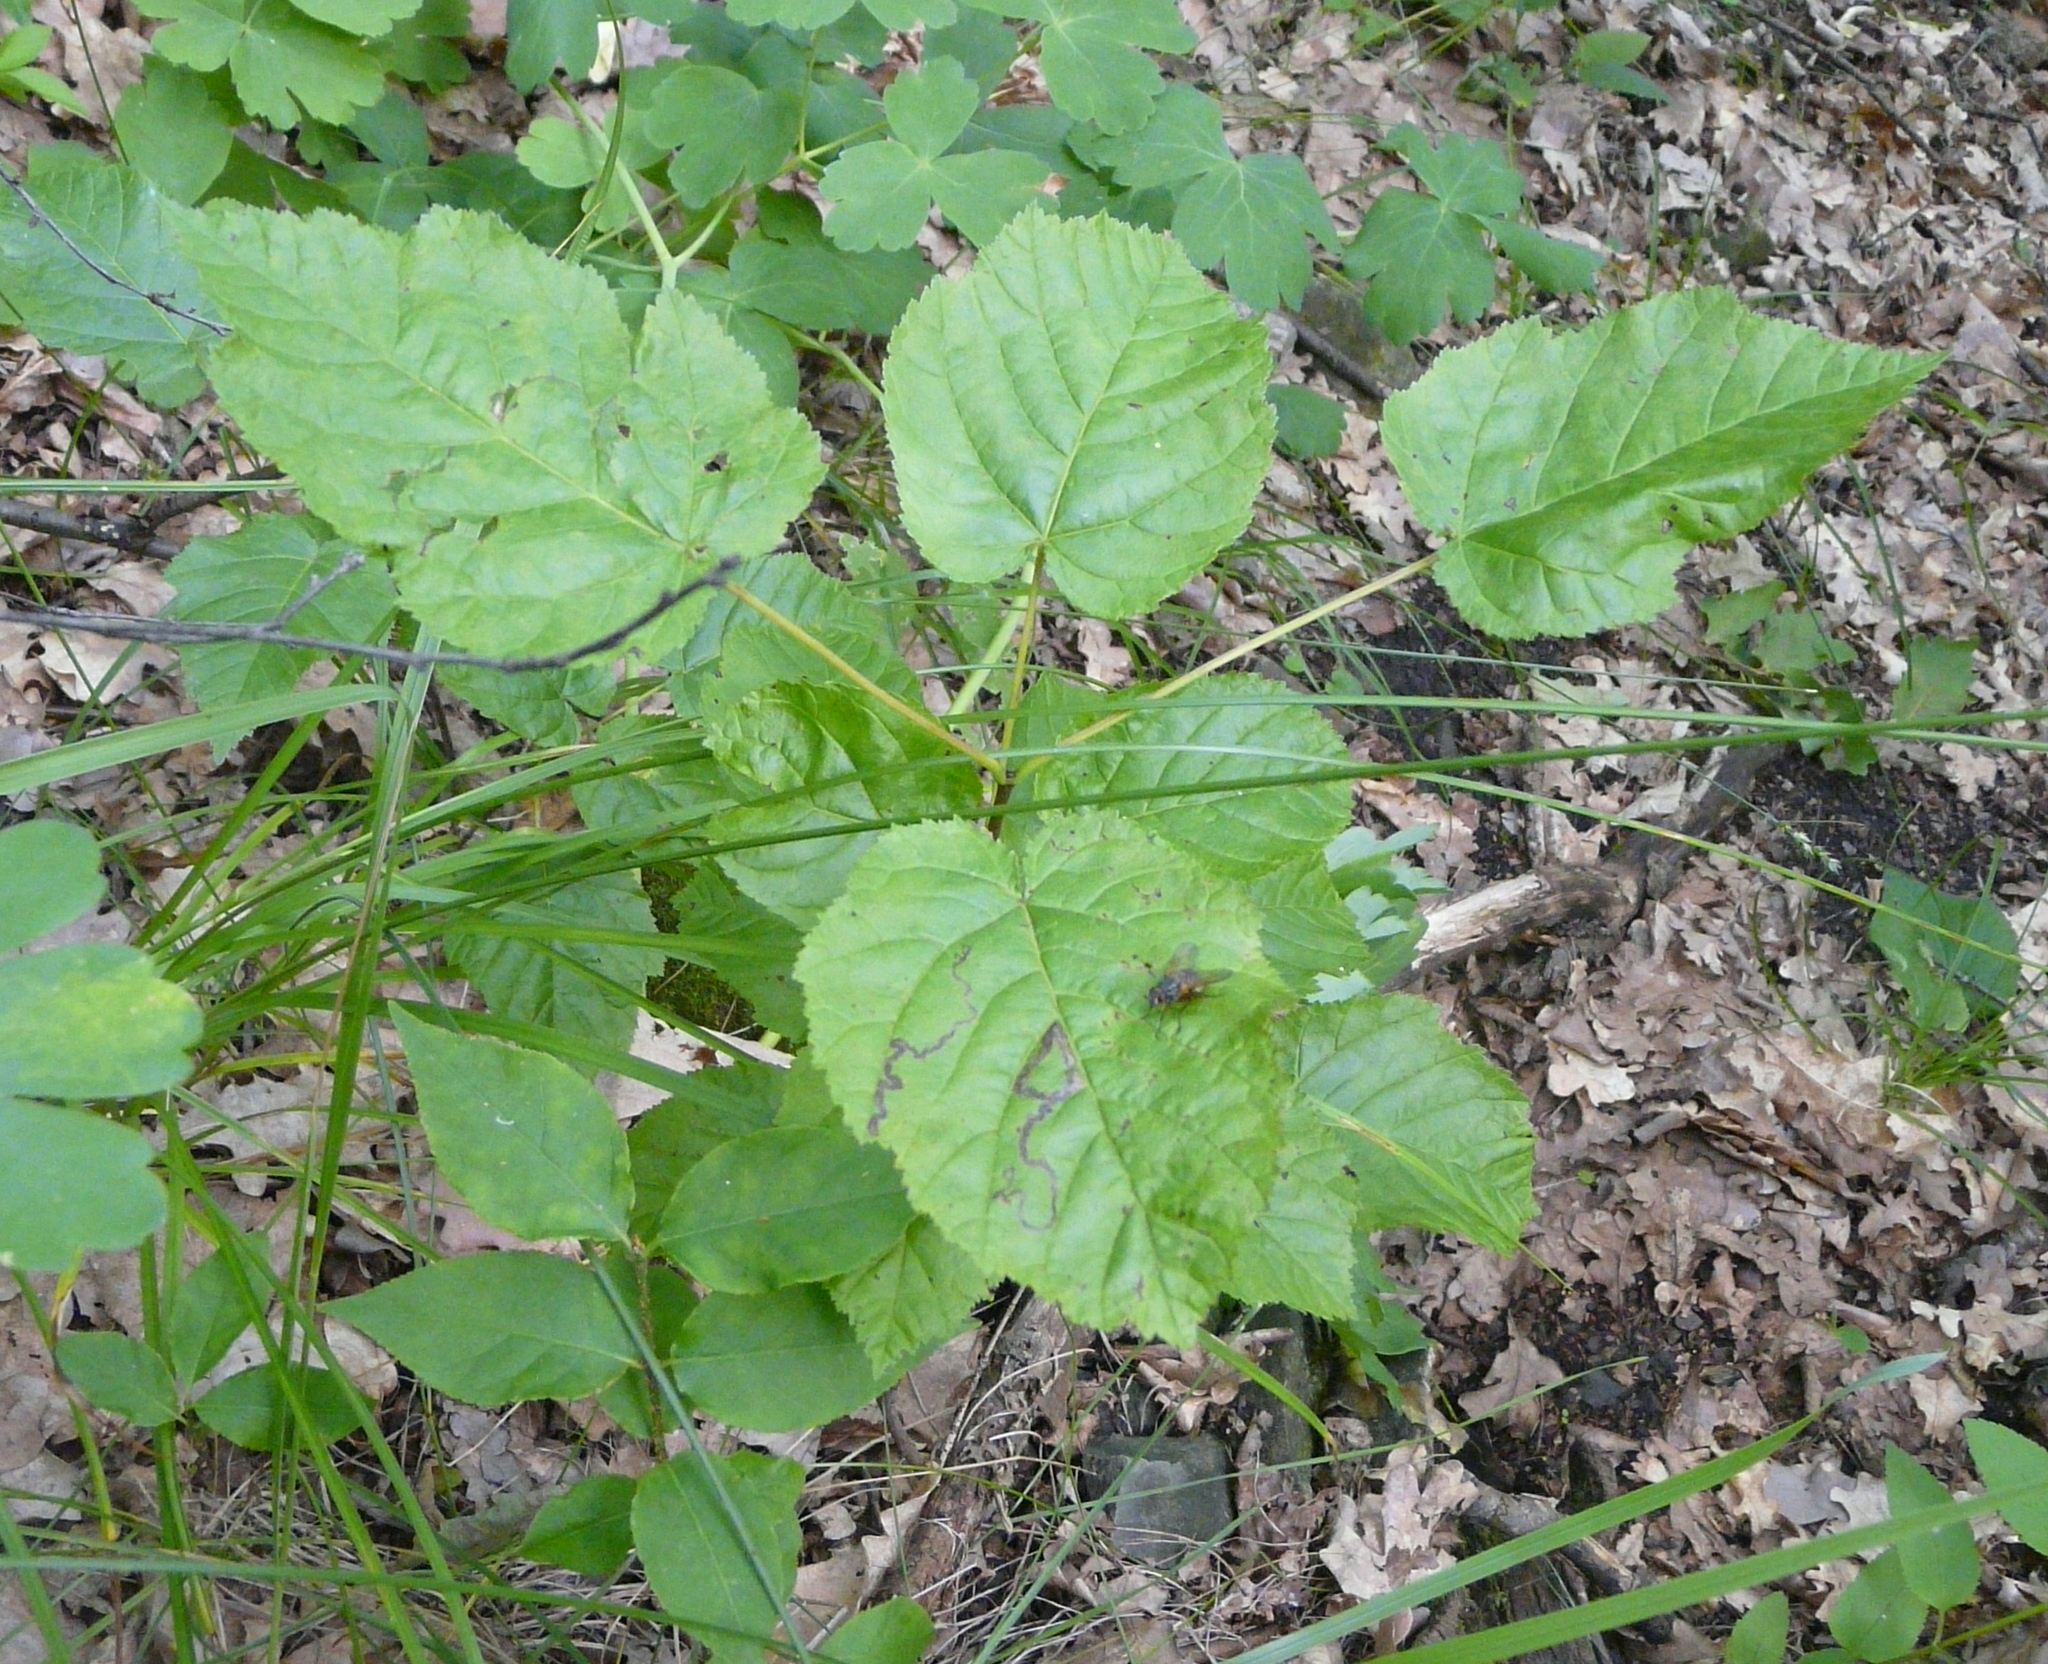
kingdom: Plantae
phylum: Tracheophyta
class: Magnoliopsida
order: Sapindales
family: Sapindaceae
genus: Acer
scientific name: Acer tataricum
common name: Tartar maple
